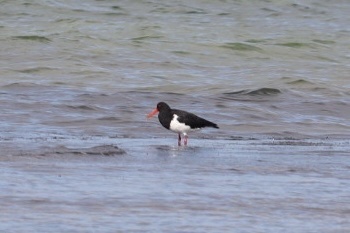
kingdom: Animalia
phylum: Chordata
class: Aves
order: Charadriiformes
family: Haematopodidae
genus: Haematopus
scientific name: Haematopus longirostris
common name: Pied oystercatcher
